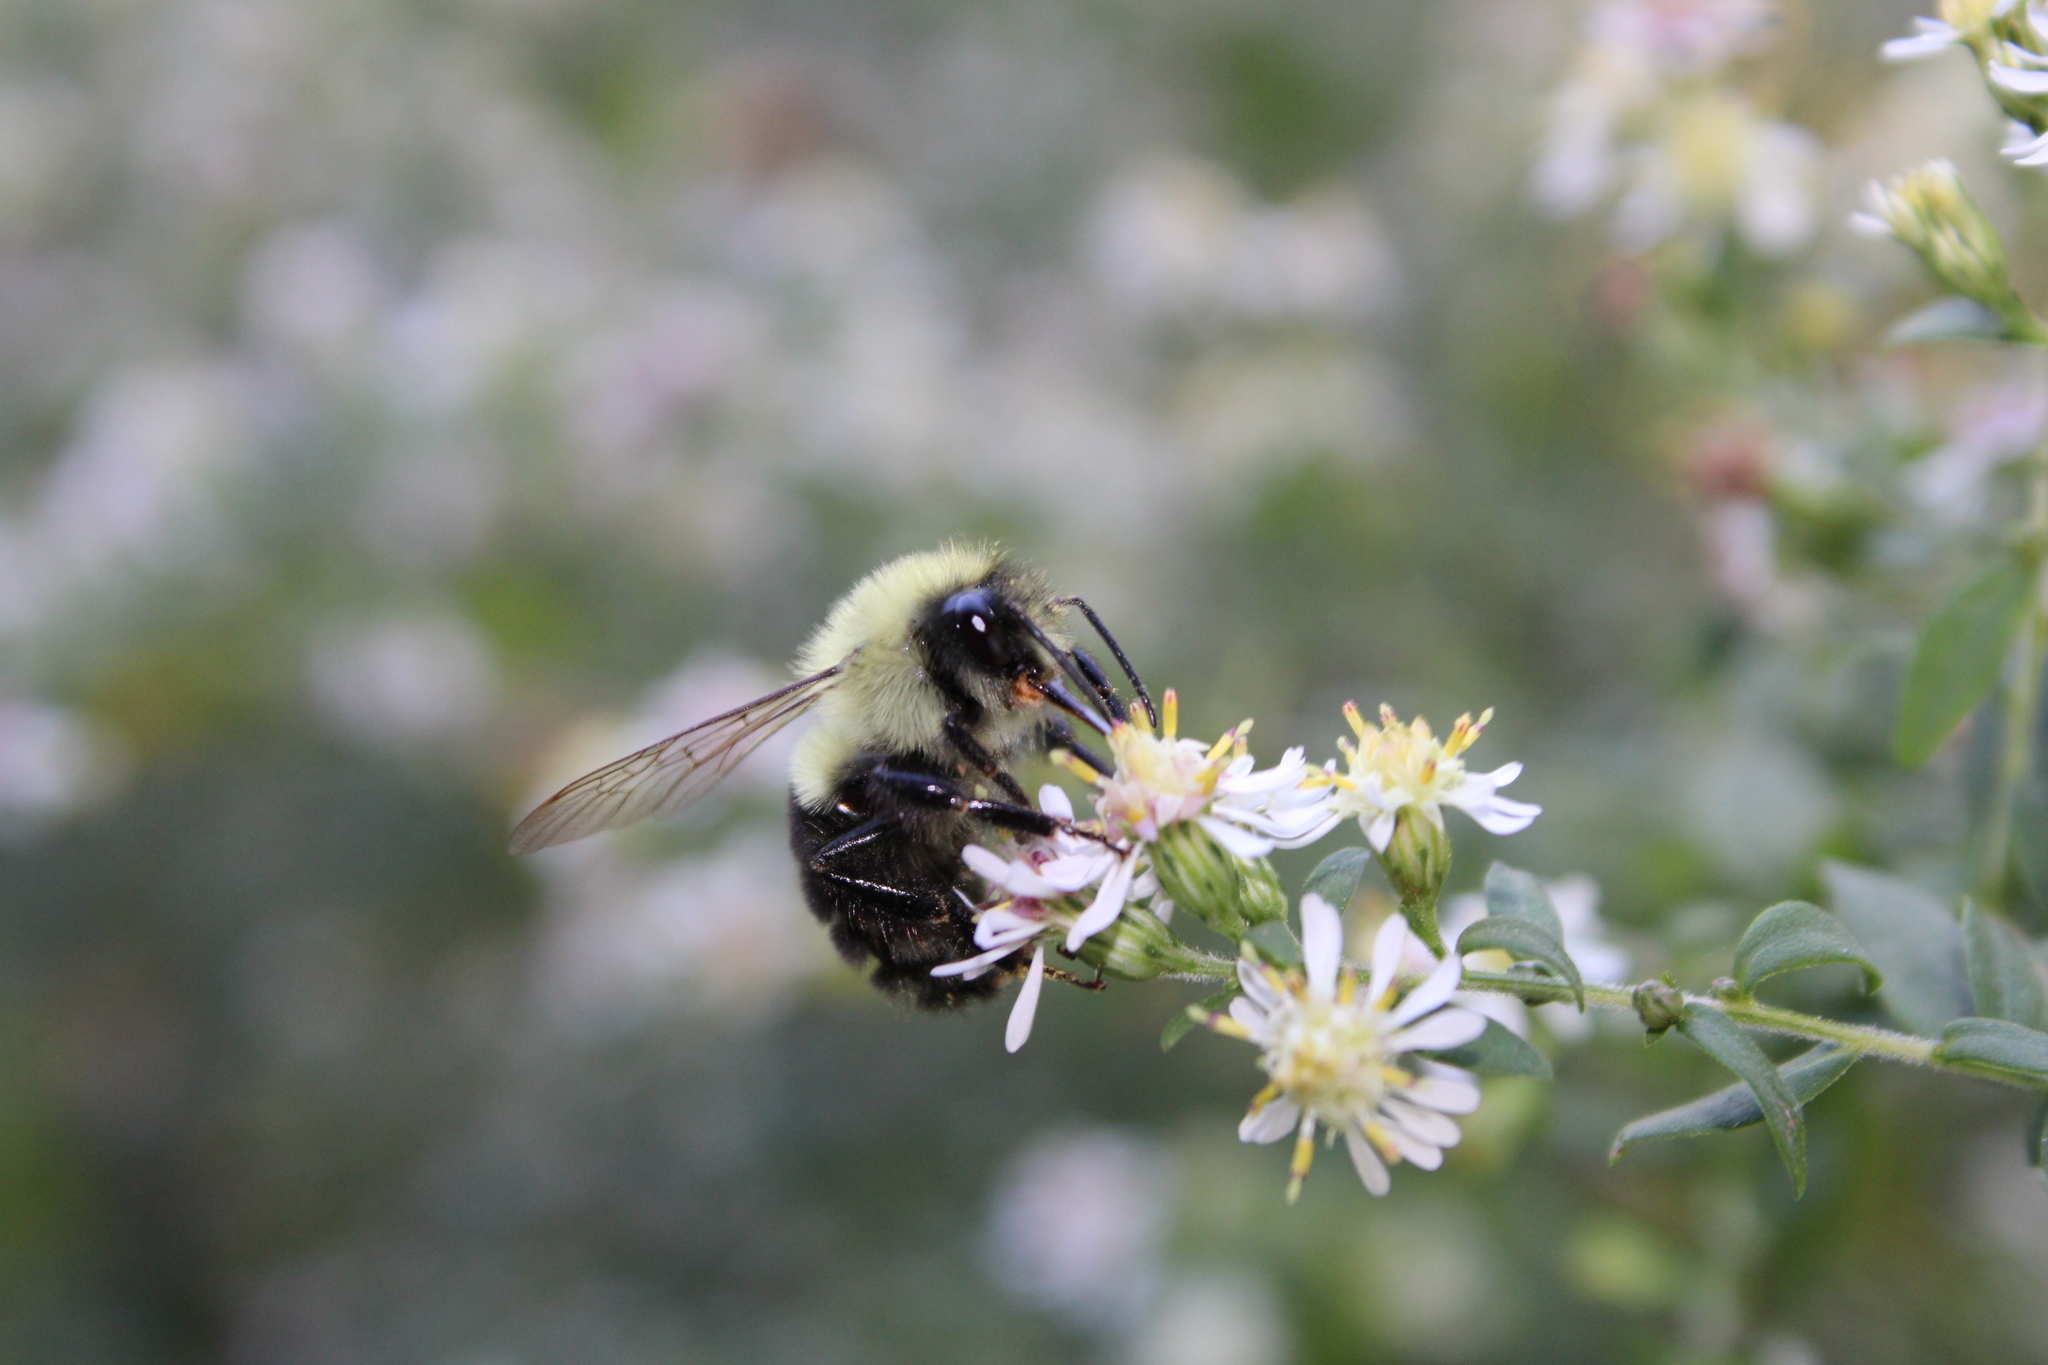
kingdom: Animalia
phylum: Arthropoda
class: Insecta
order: Hymenoptera
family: Apidae
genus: Bombus
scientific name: Bombus impatiens
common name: Common eastern bumble bee
